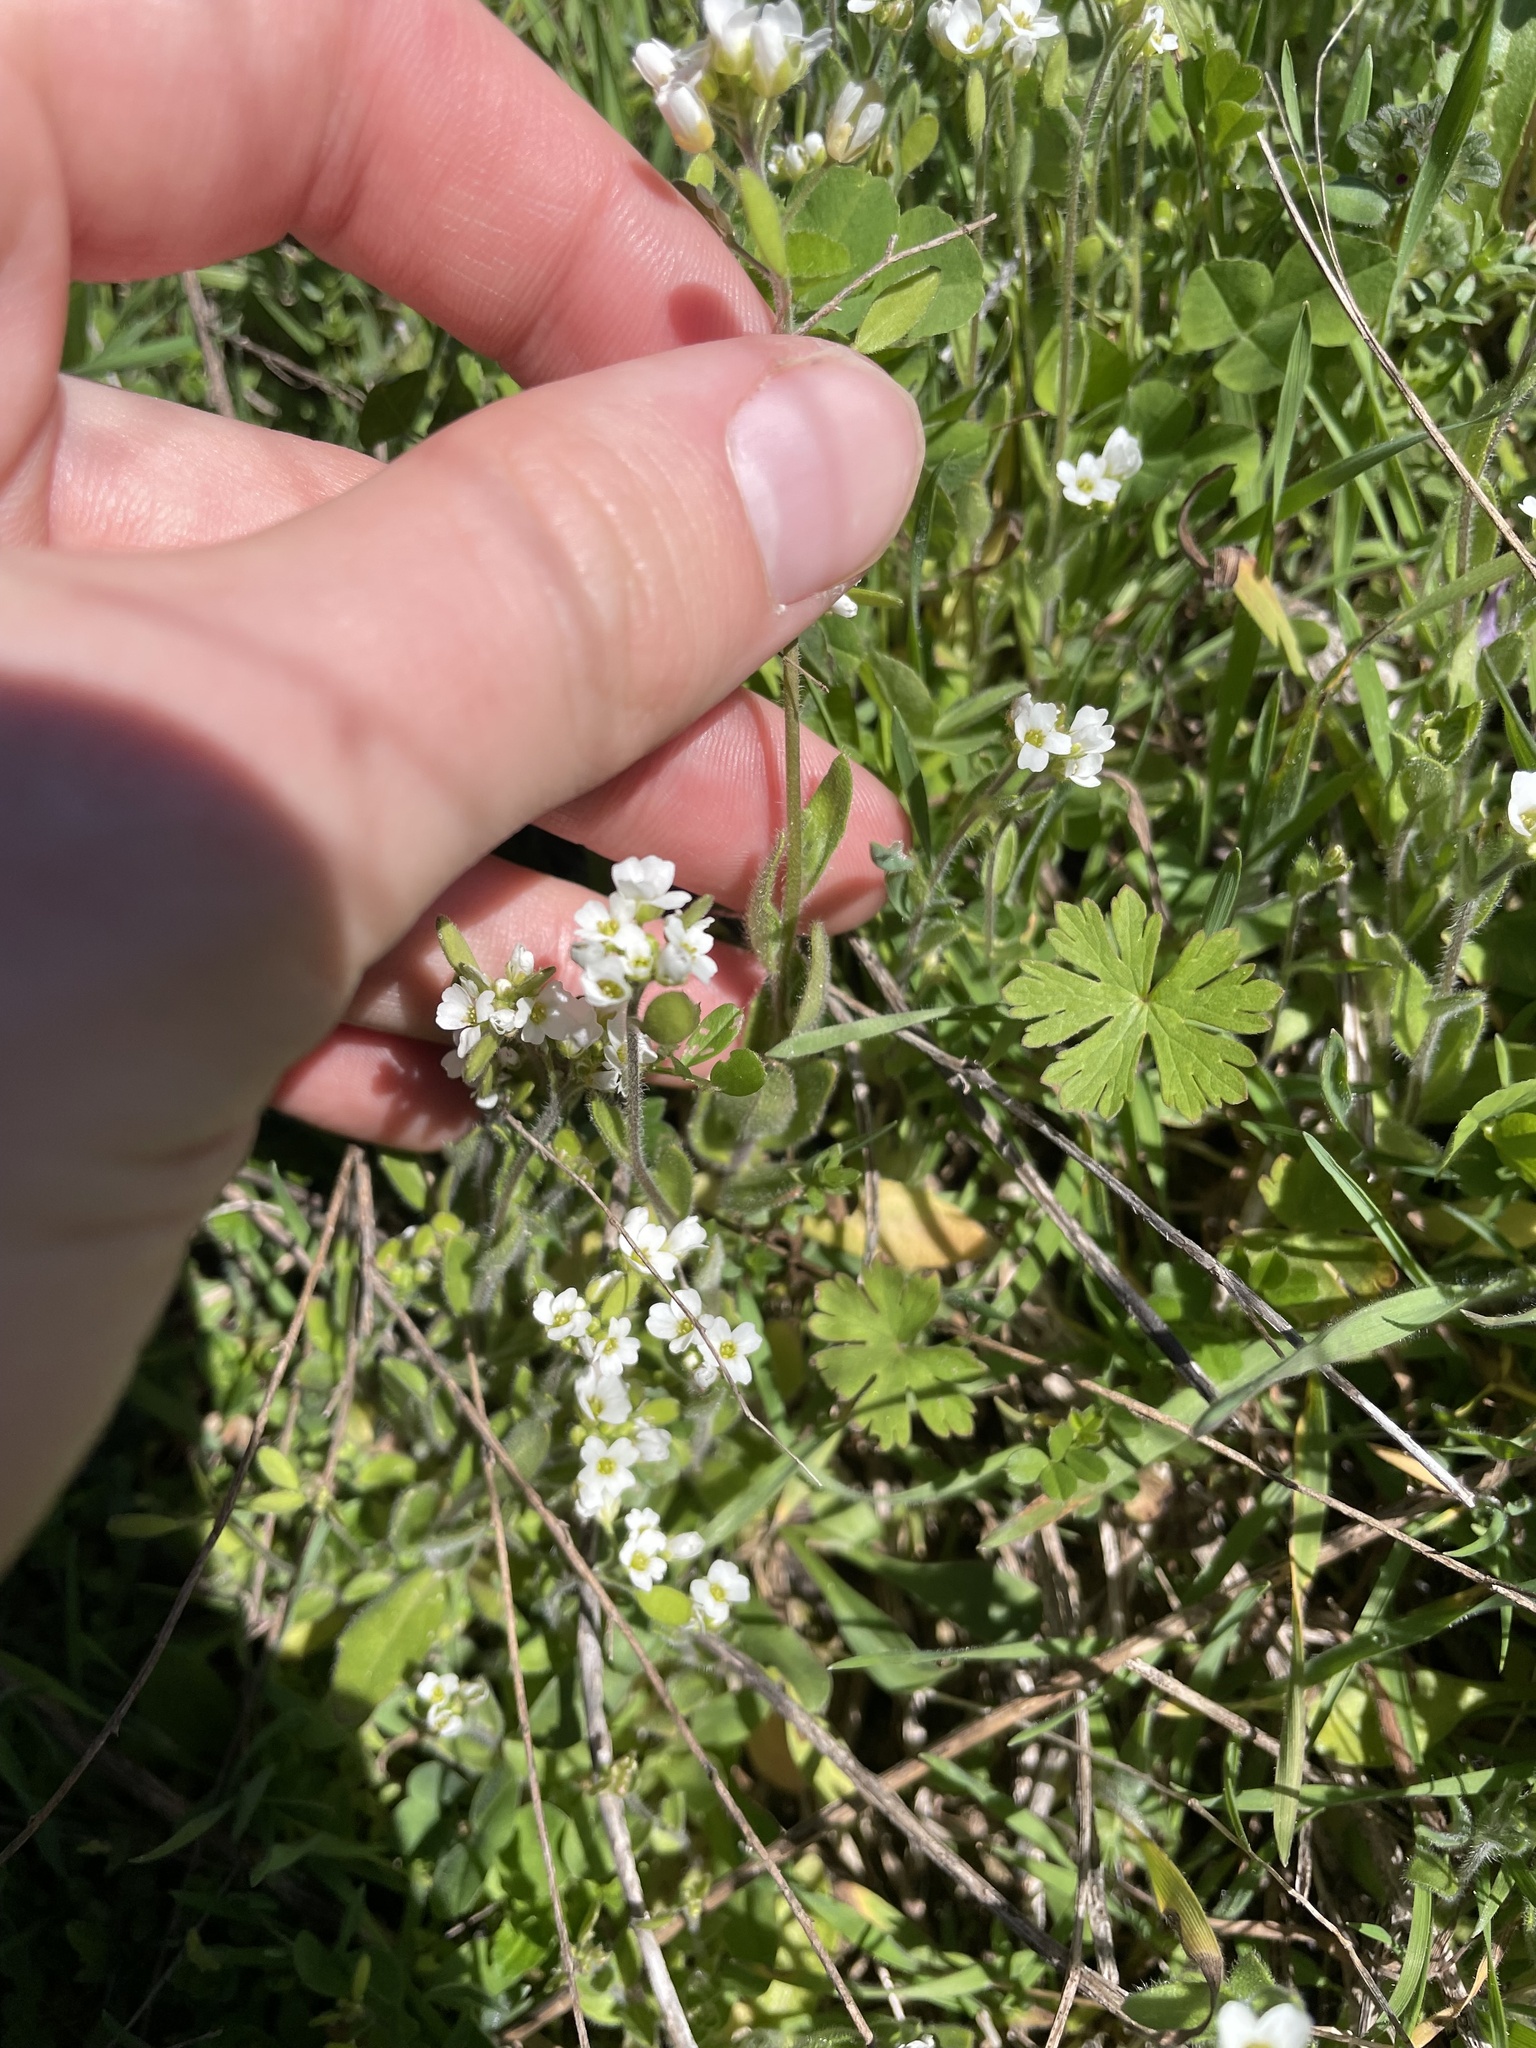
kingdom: Plantae
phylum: Tracheophyta
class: Magnoliopsida
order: Brassicales
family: Brassicaceae
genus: Tomostima
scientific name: Tomostima platycarpa
